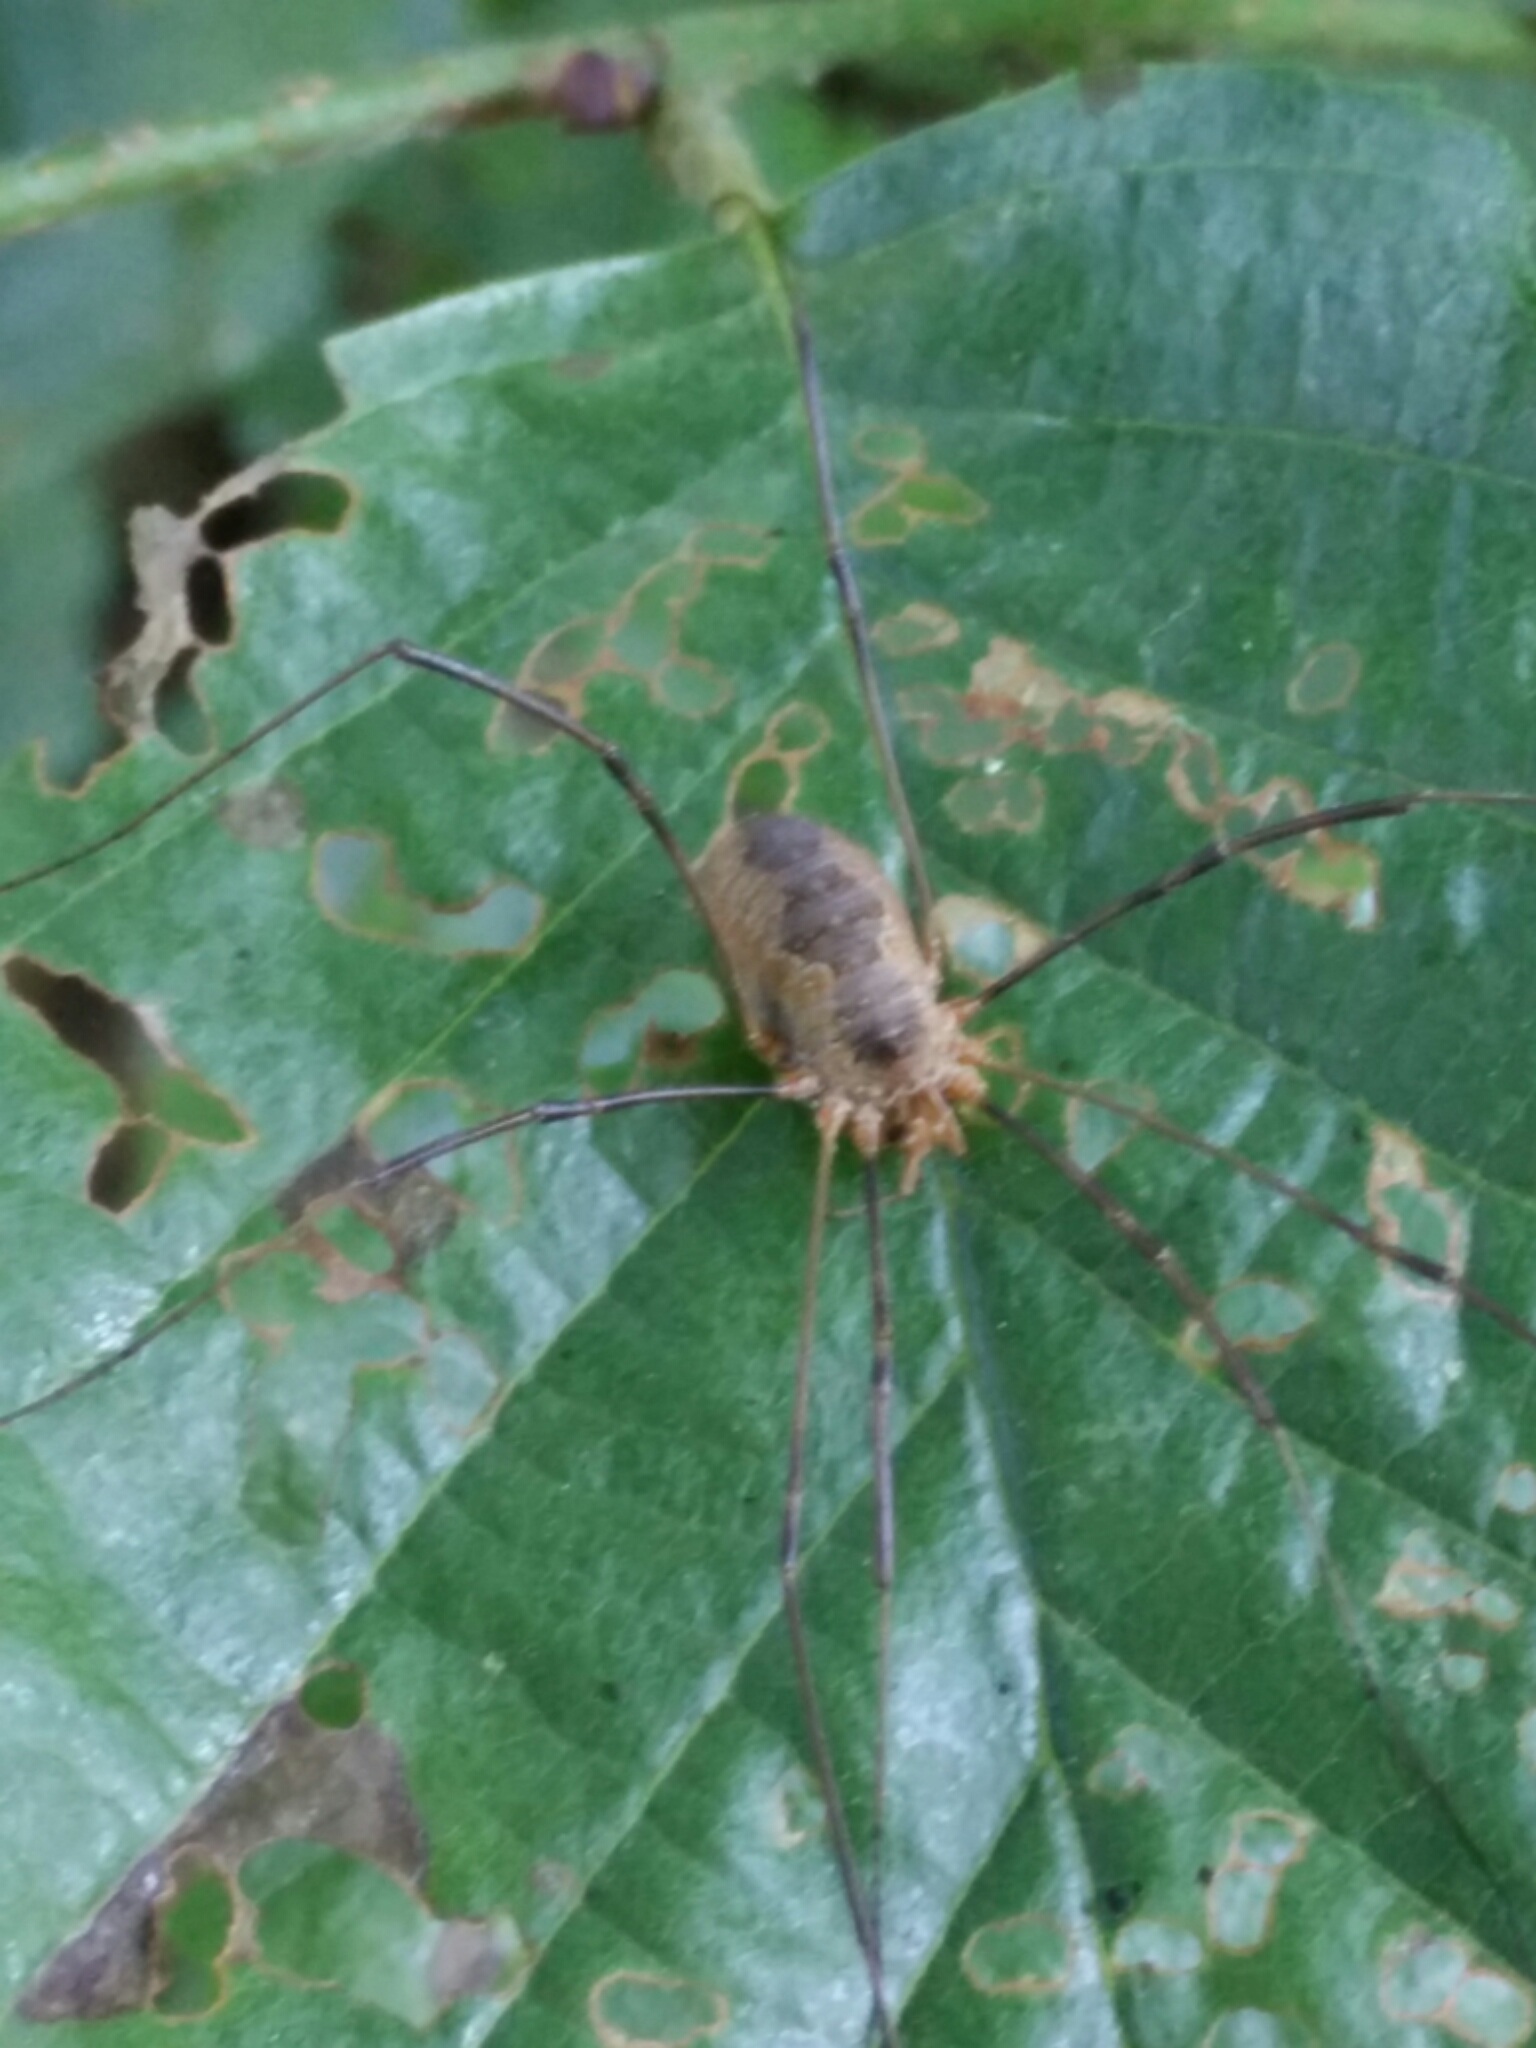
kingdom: Animalia
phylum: Arthropoda
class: Arachnida
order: Opiliones
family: Phalangiidae
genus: Phalangium
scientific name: Phalangium opilio
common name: Daddy longleg
